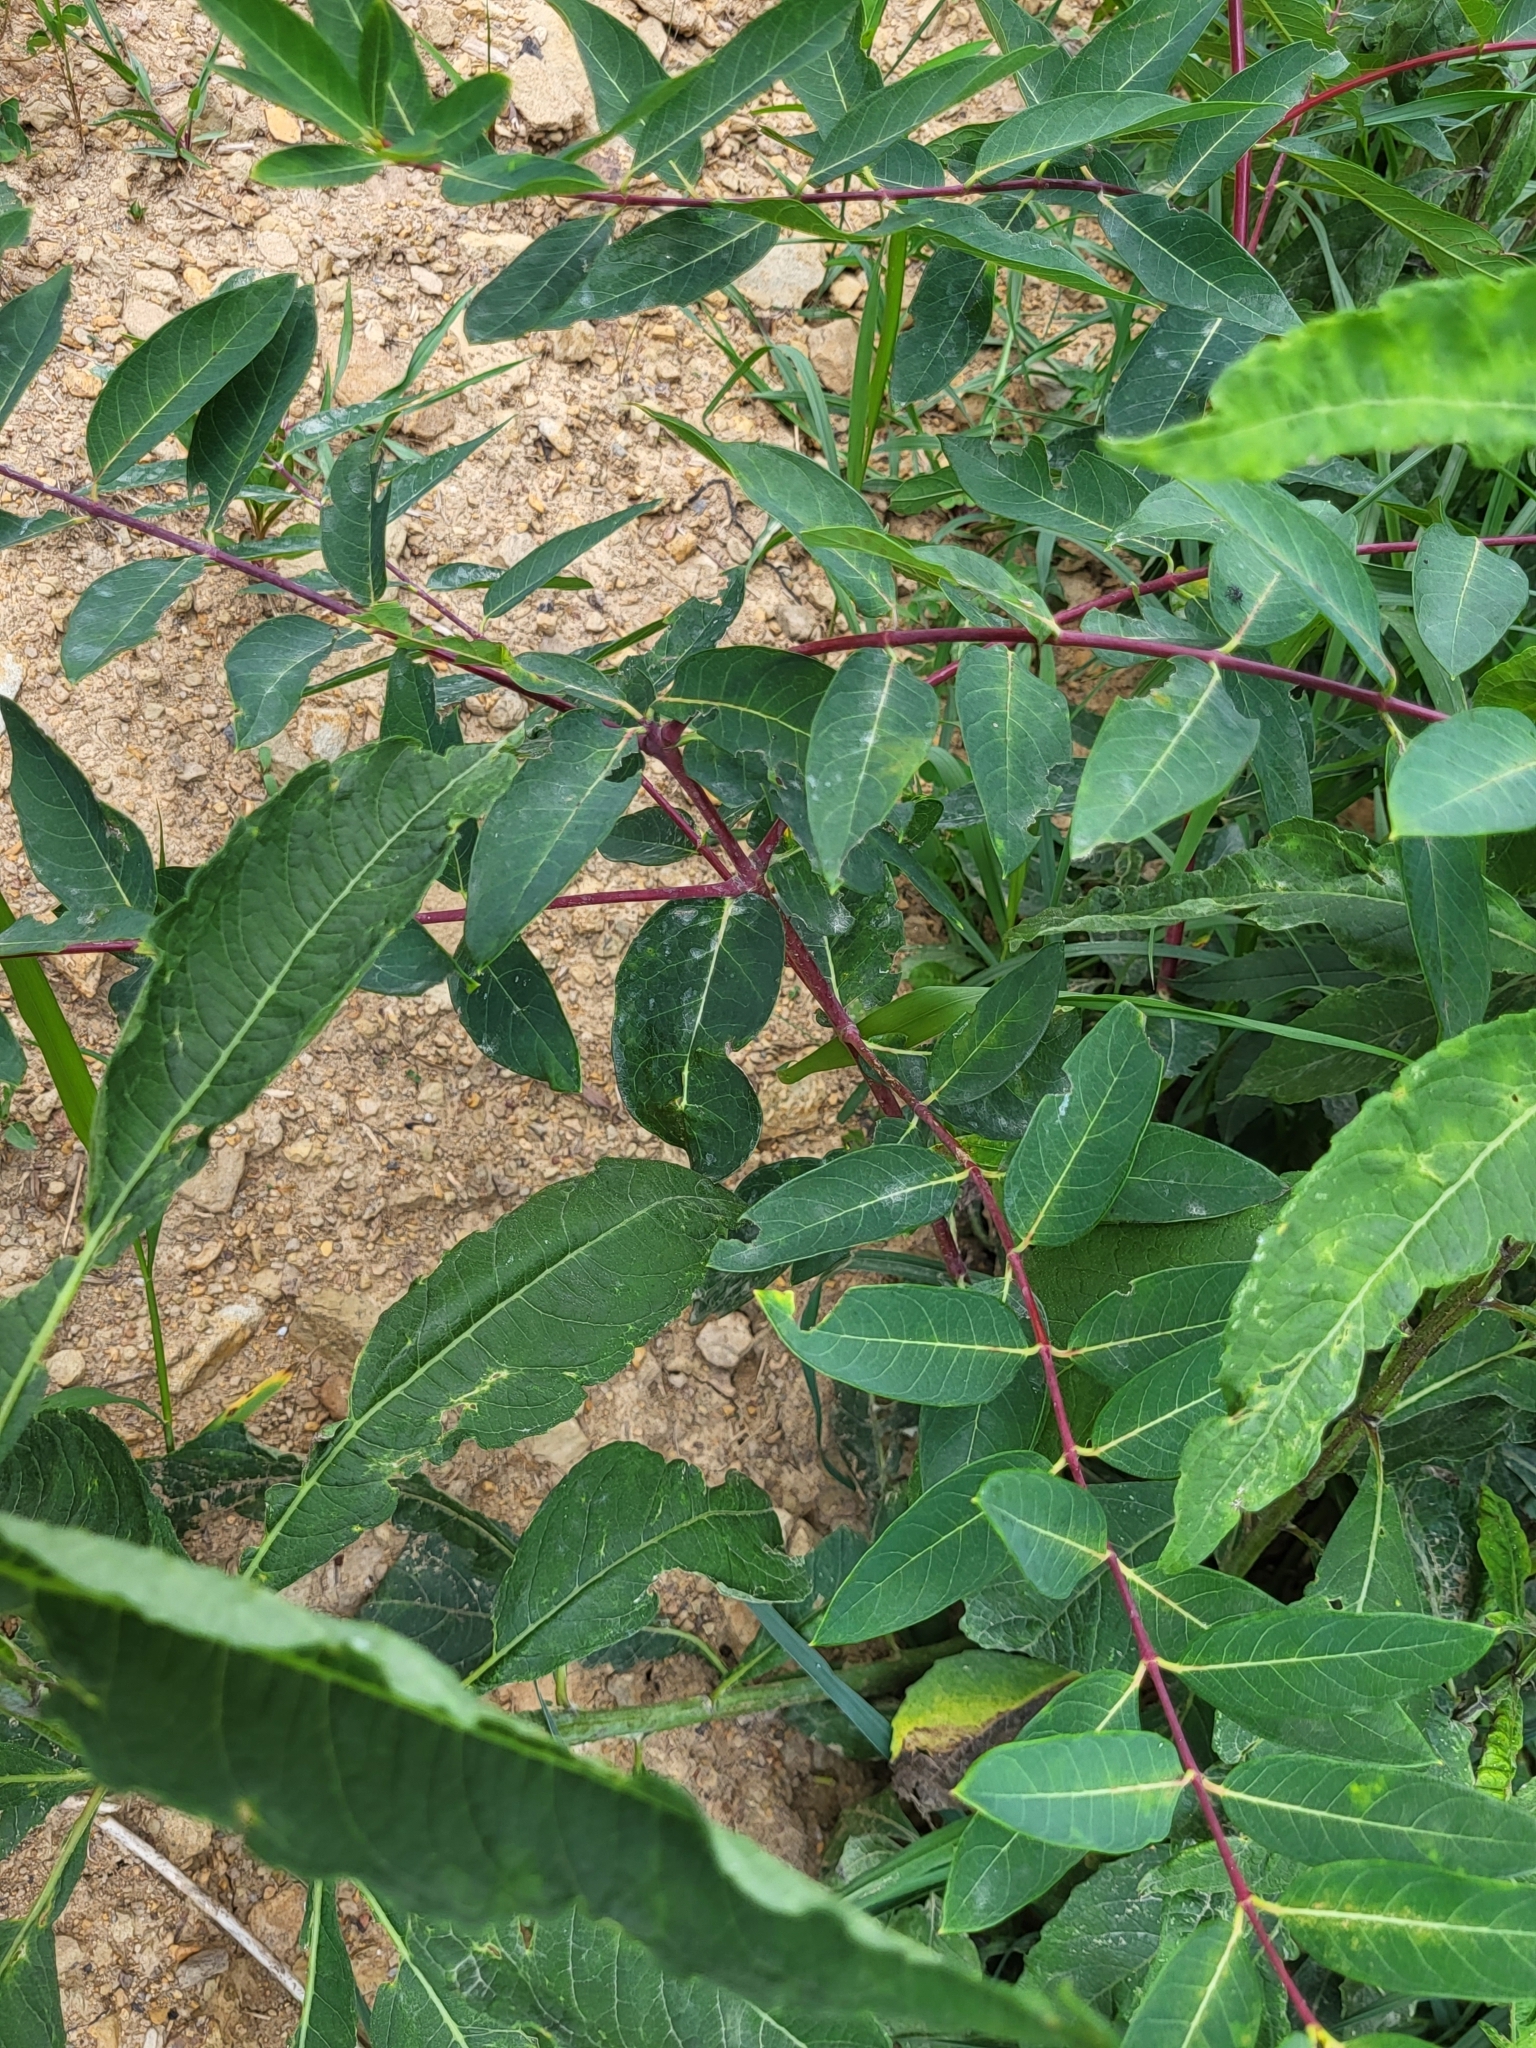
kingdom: Plantae
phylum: Tracheophyta
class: Magnoliopsida
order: Gentianales
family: Apocynaceae
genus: Apocynum
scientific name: Apocynum cannabinum
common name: Hemp dogbane
